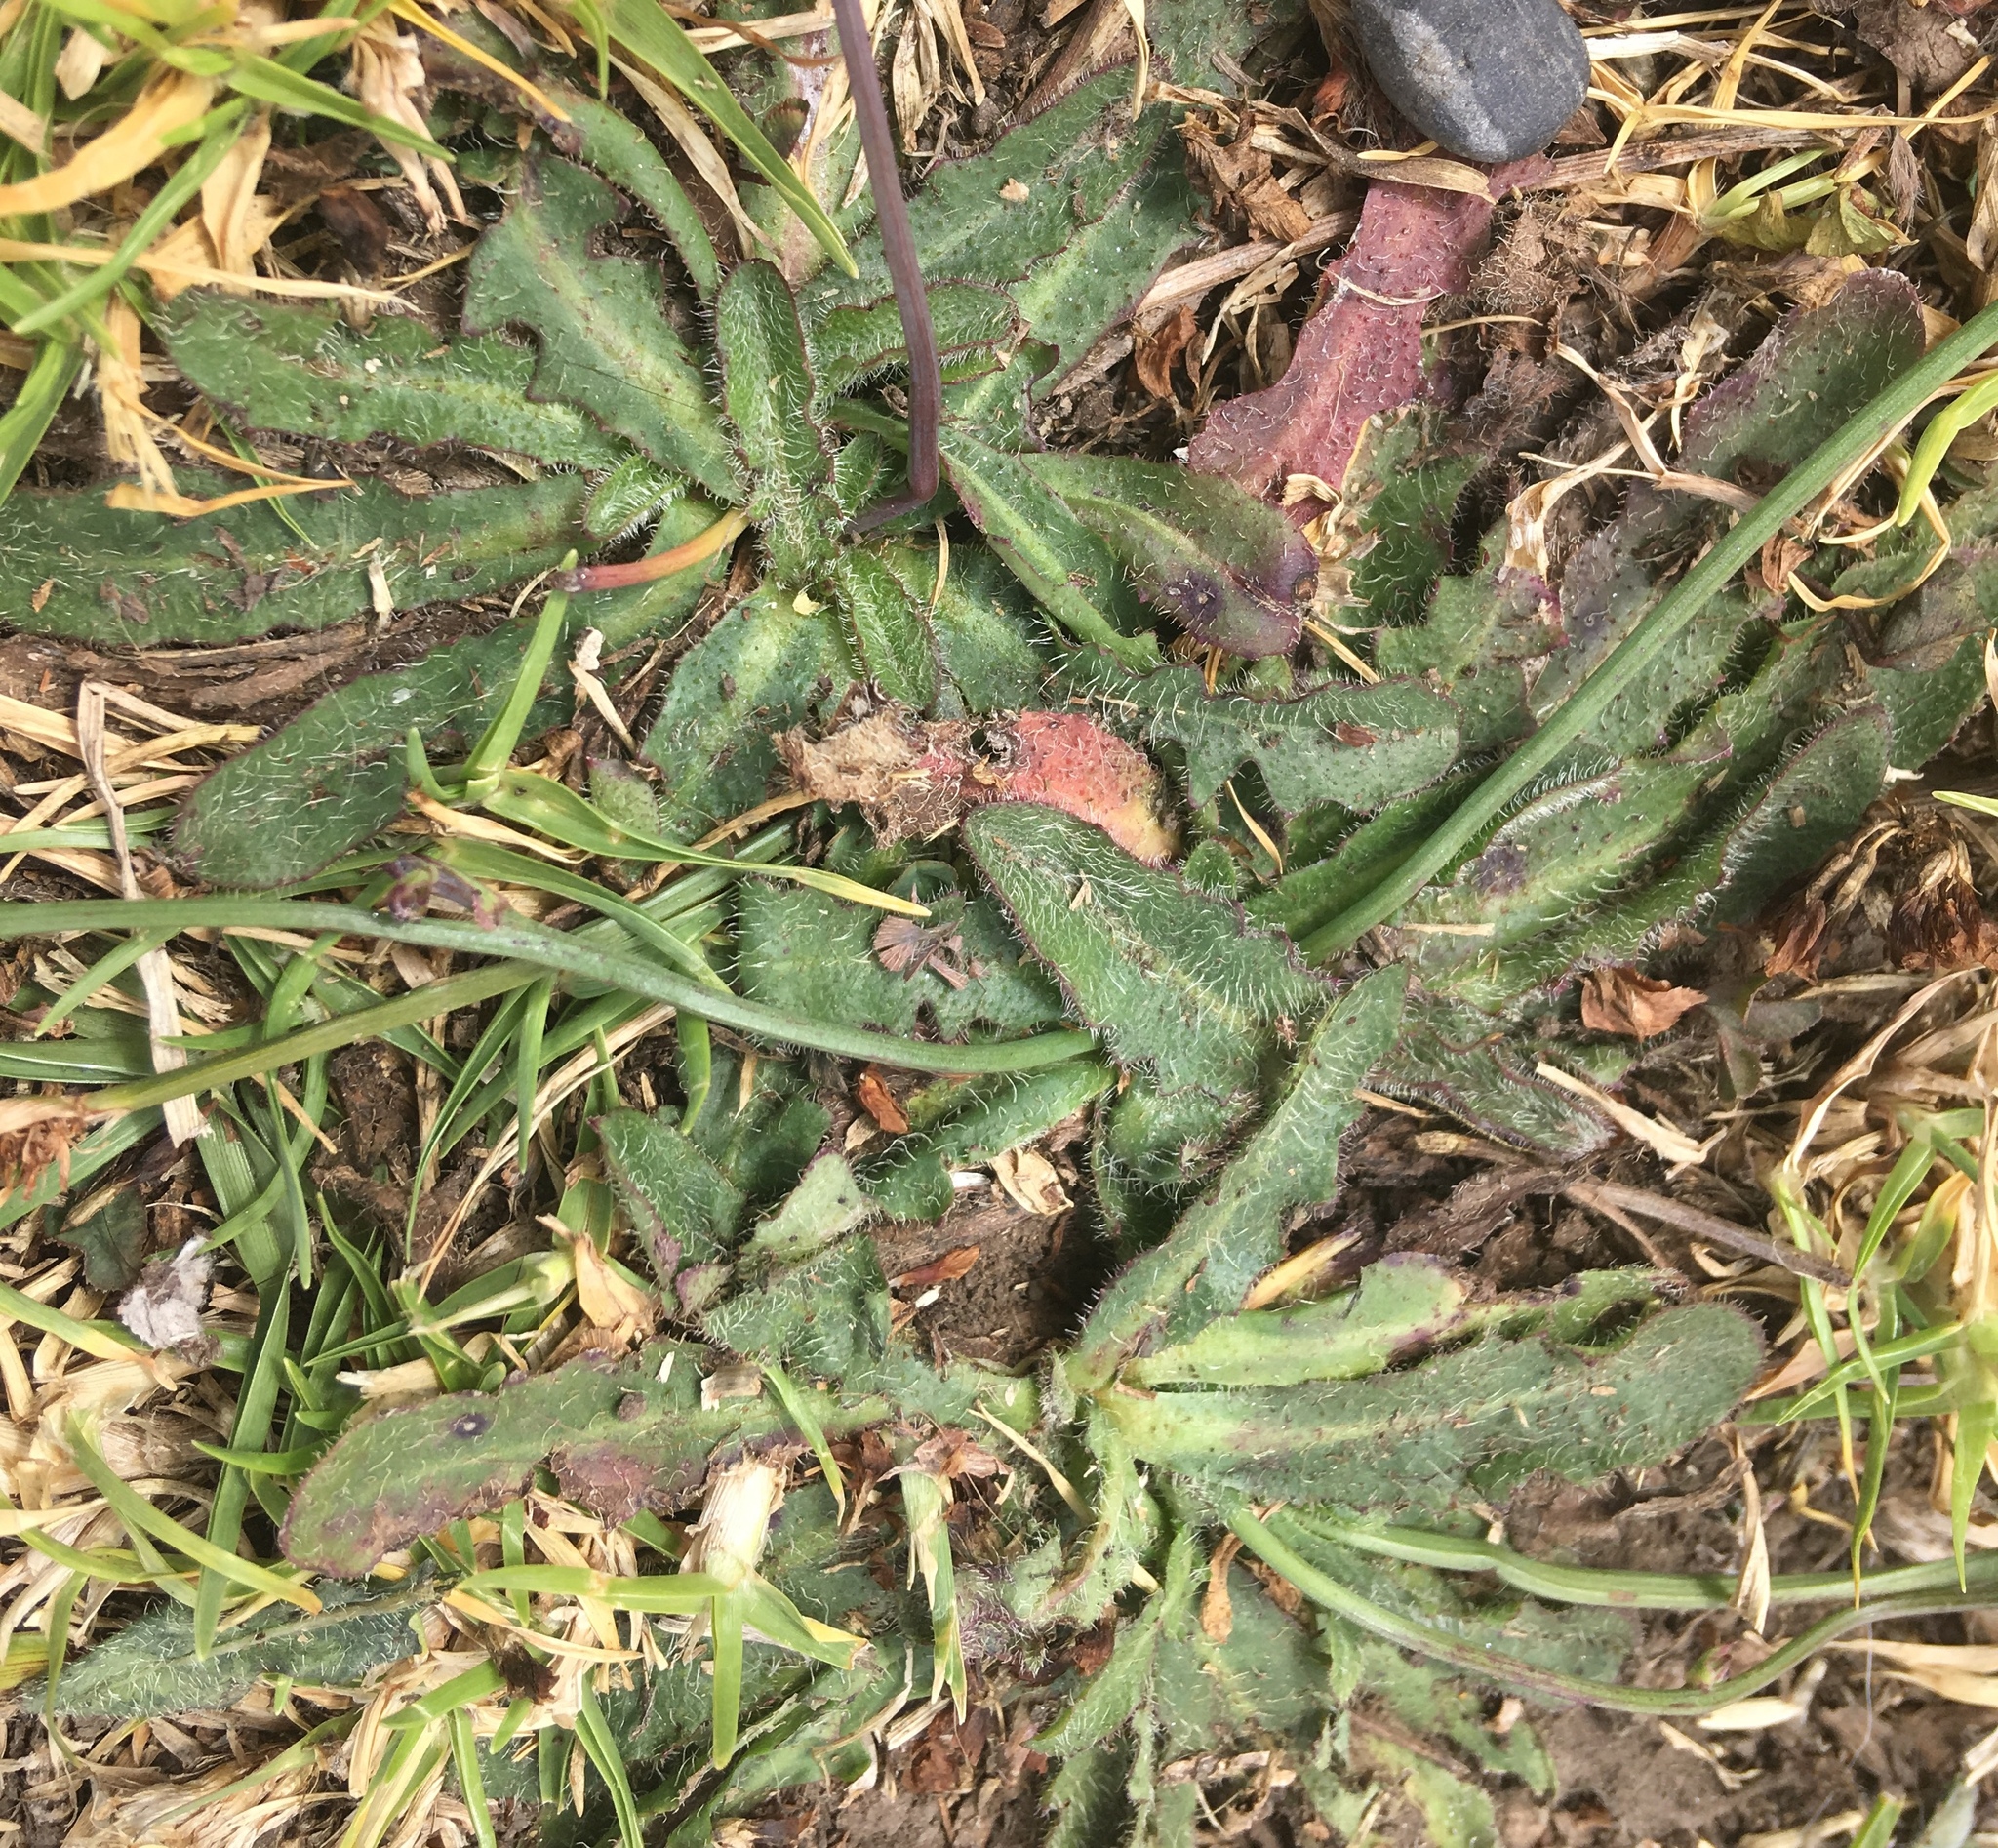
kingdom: Plantae
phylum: Tracheophyta
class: Magnoliopsida
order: Asterales
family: Asteraceae
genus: Hypochaeris
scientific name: Hypochaeris radicata
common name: Flatweed
